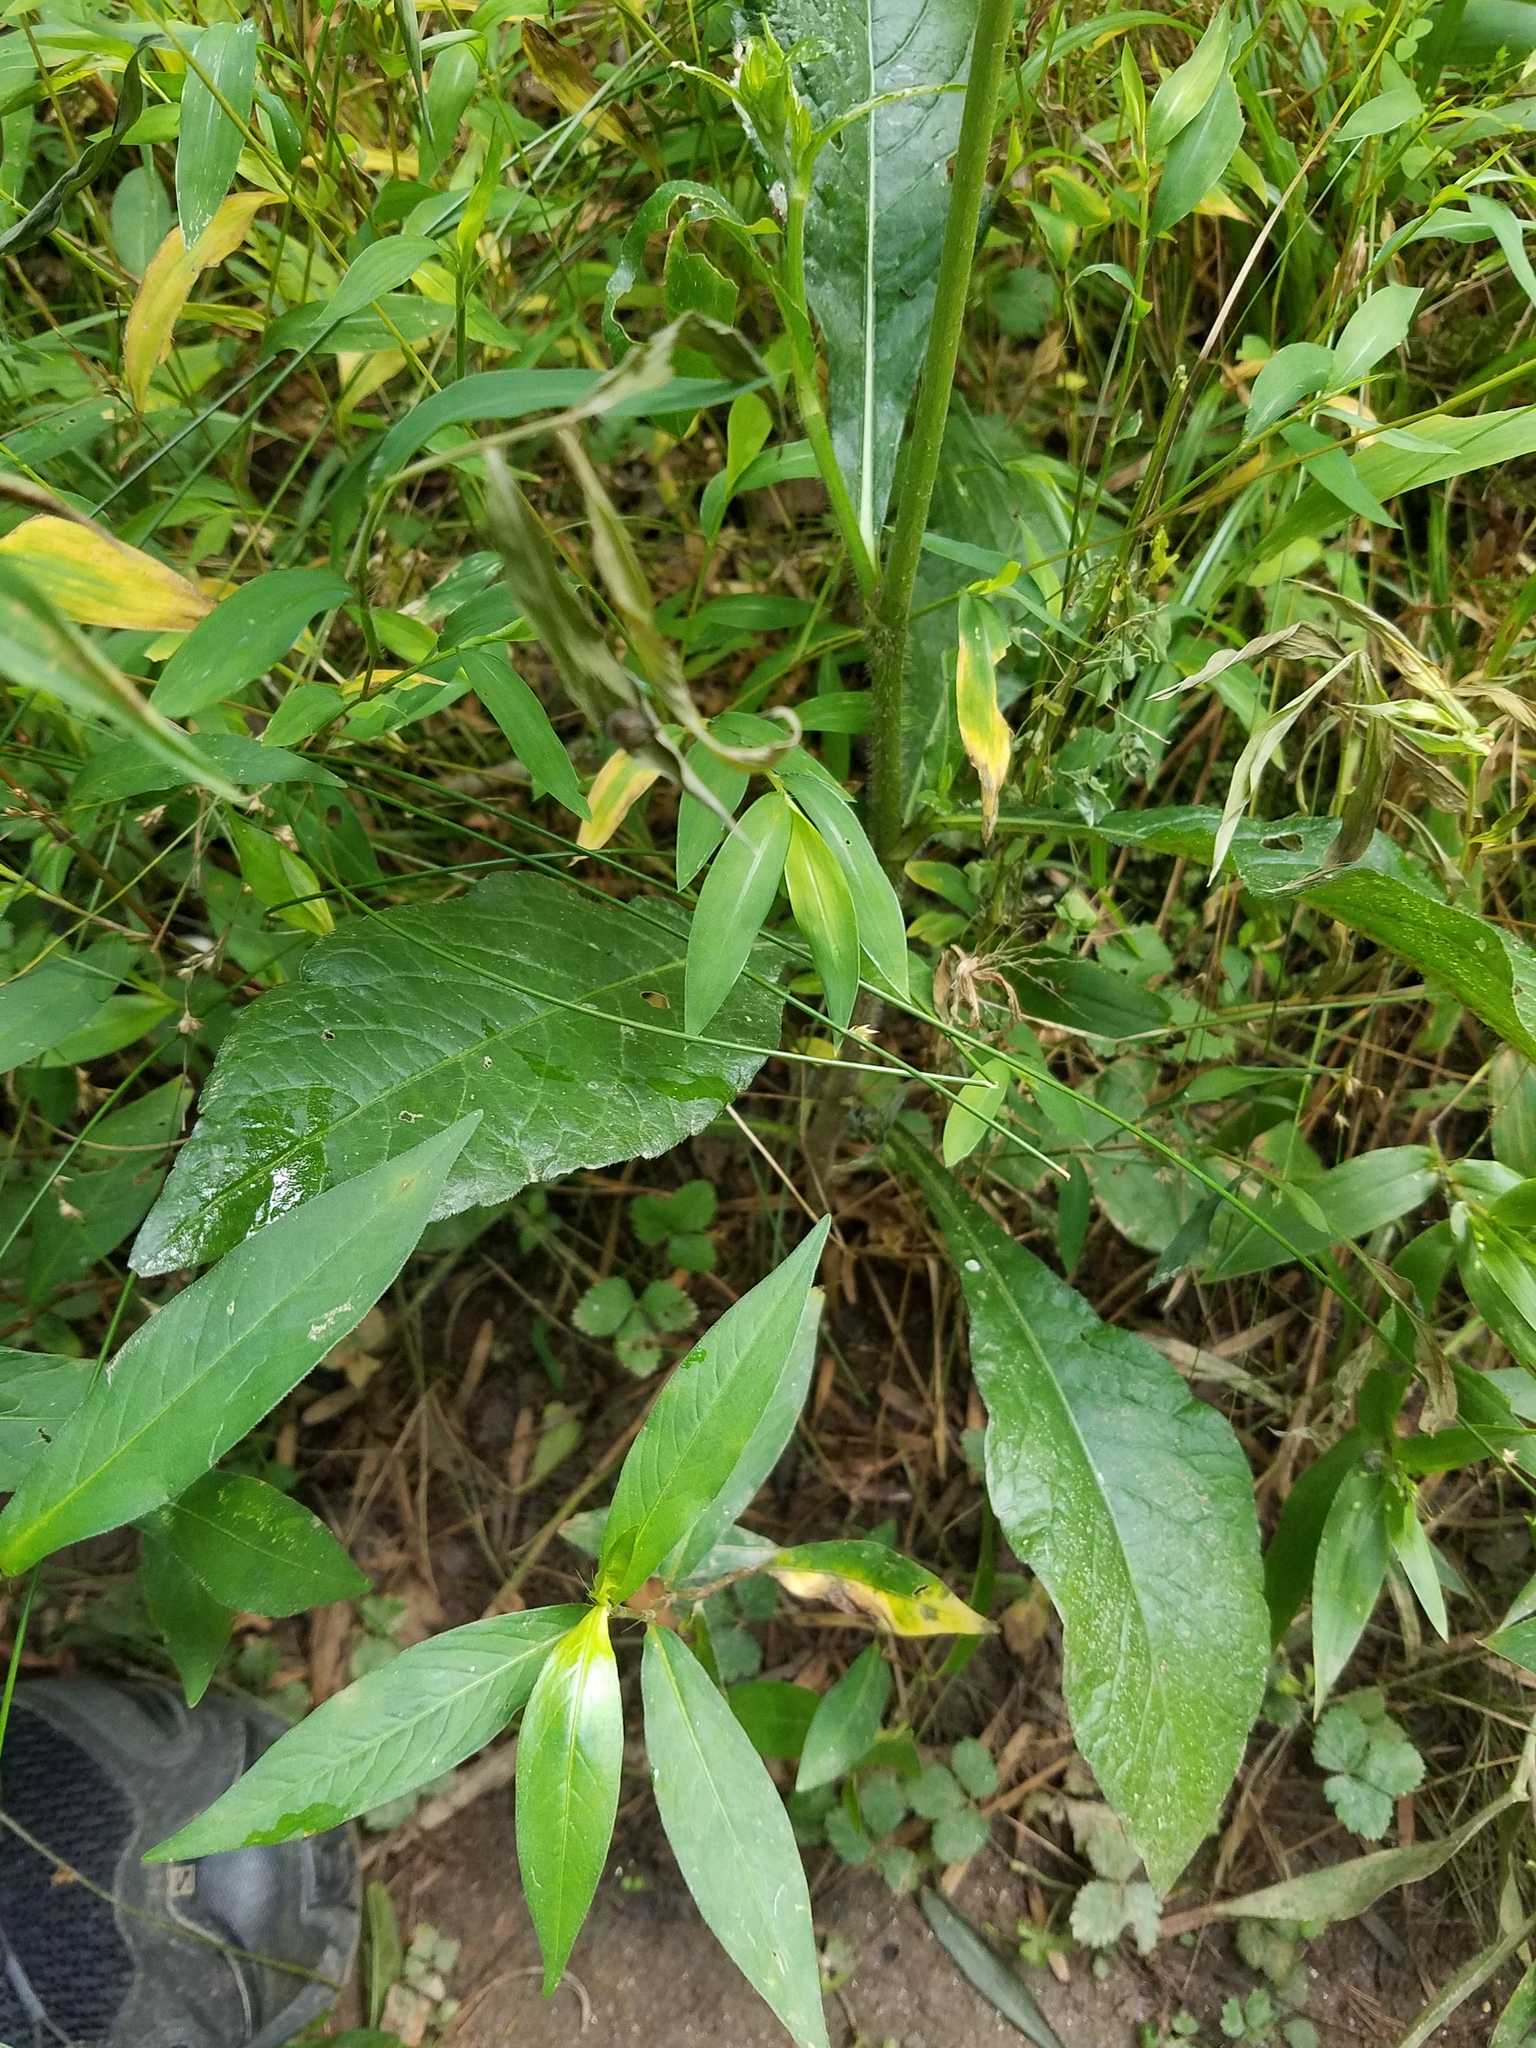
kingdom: Plantae
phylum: Tracheophyta
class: Magnoliopsida
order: Asterales
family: Asteraceae
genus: Elephantopus
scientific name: Elephantopus carolinianus
